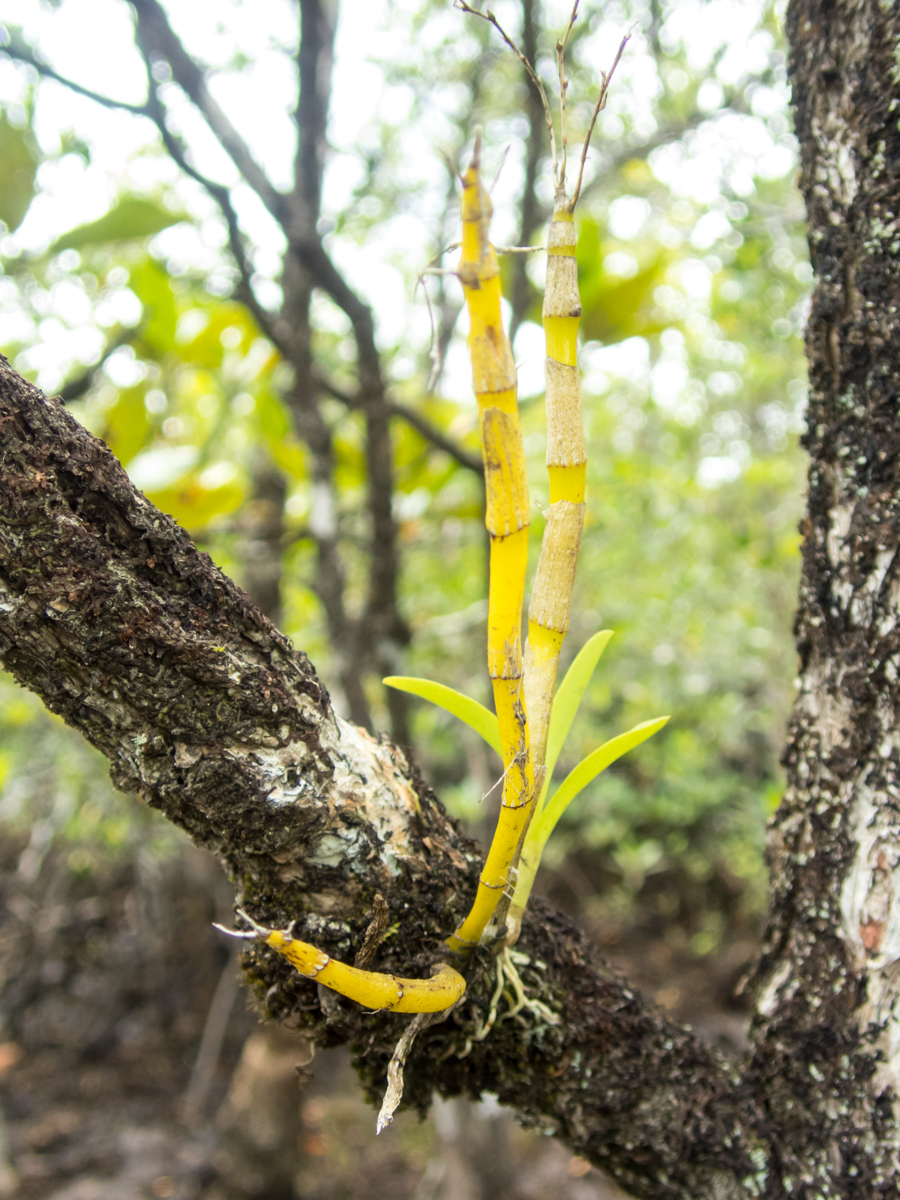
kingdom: Plantae
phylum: Tracheophyta
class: Liliopsida
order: Asparagales
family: Orchidaceae
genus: Dendrobium
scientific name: Dendrobium kratense
